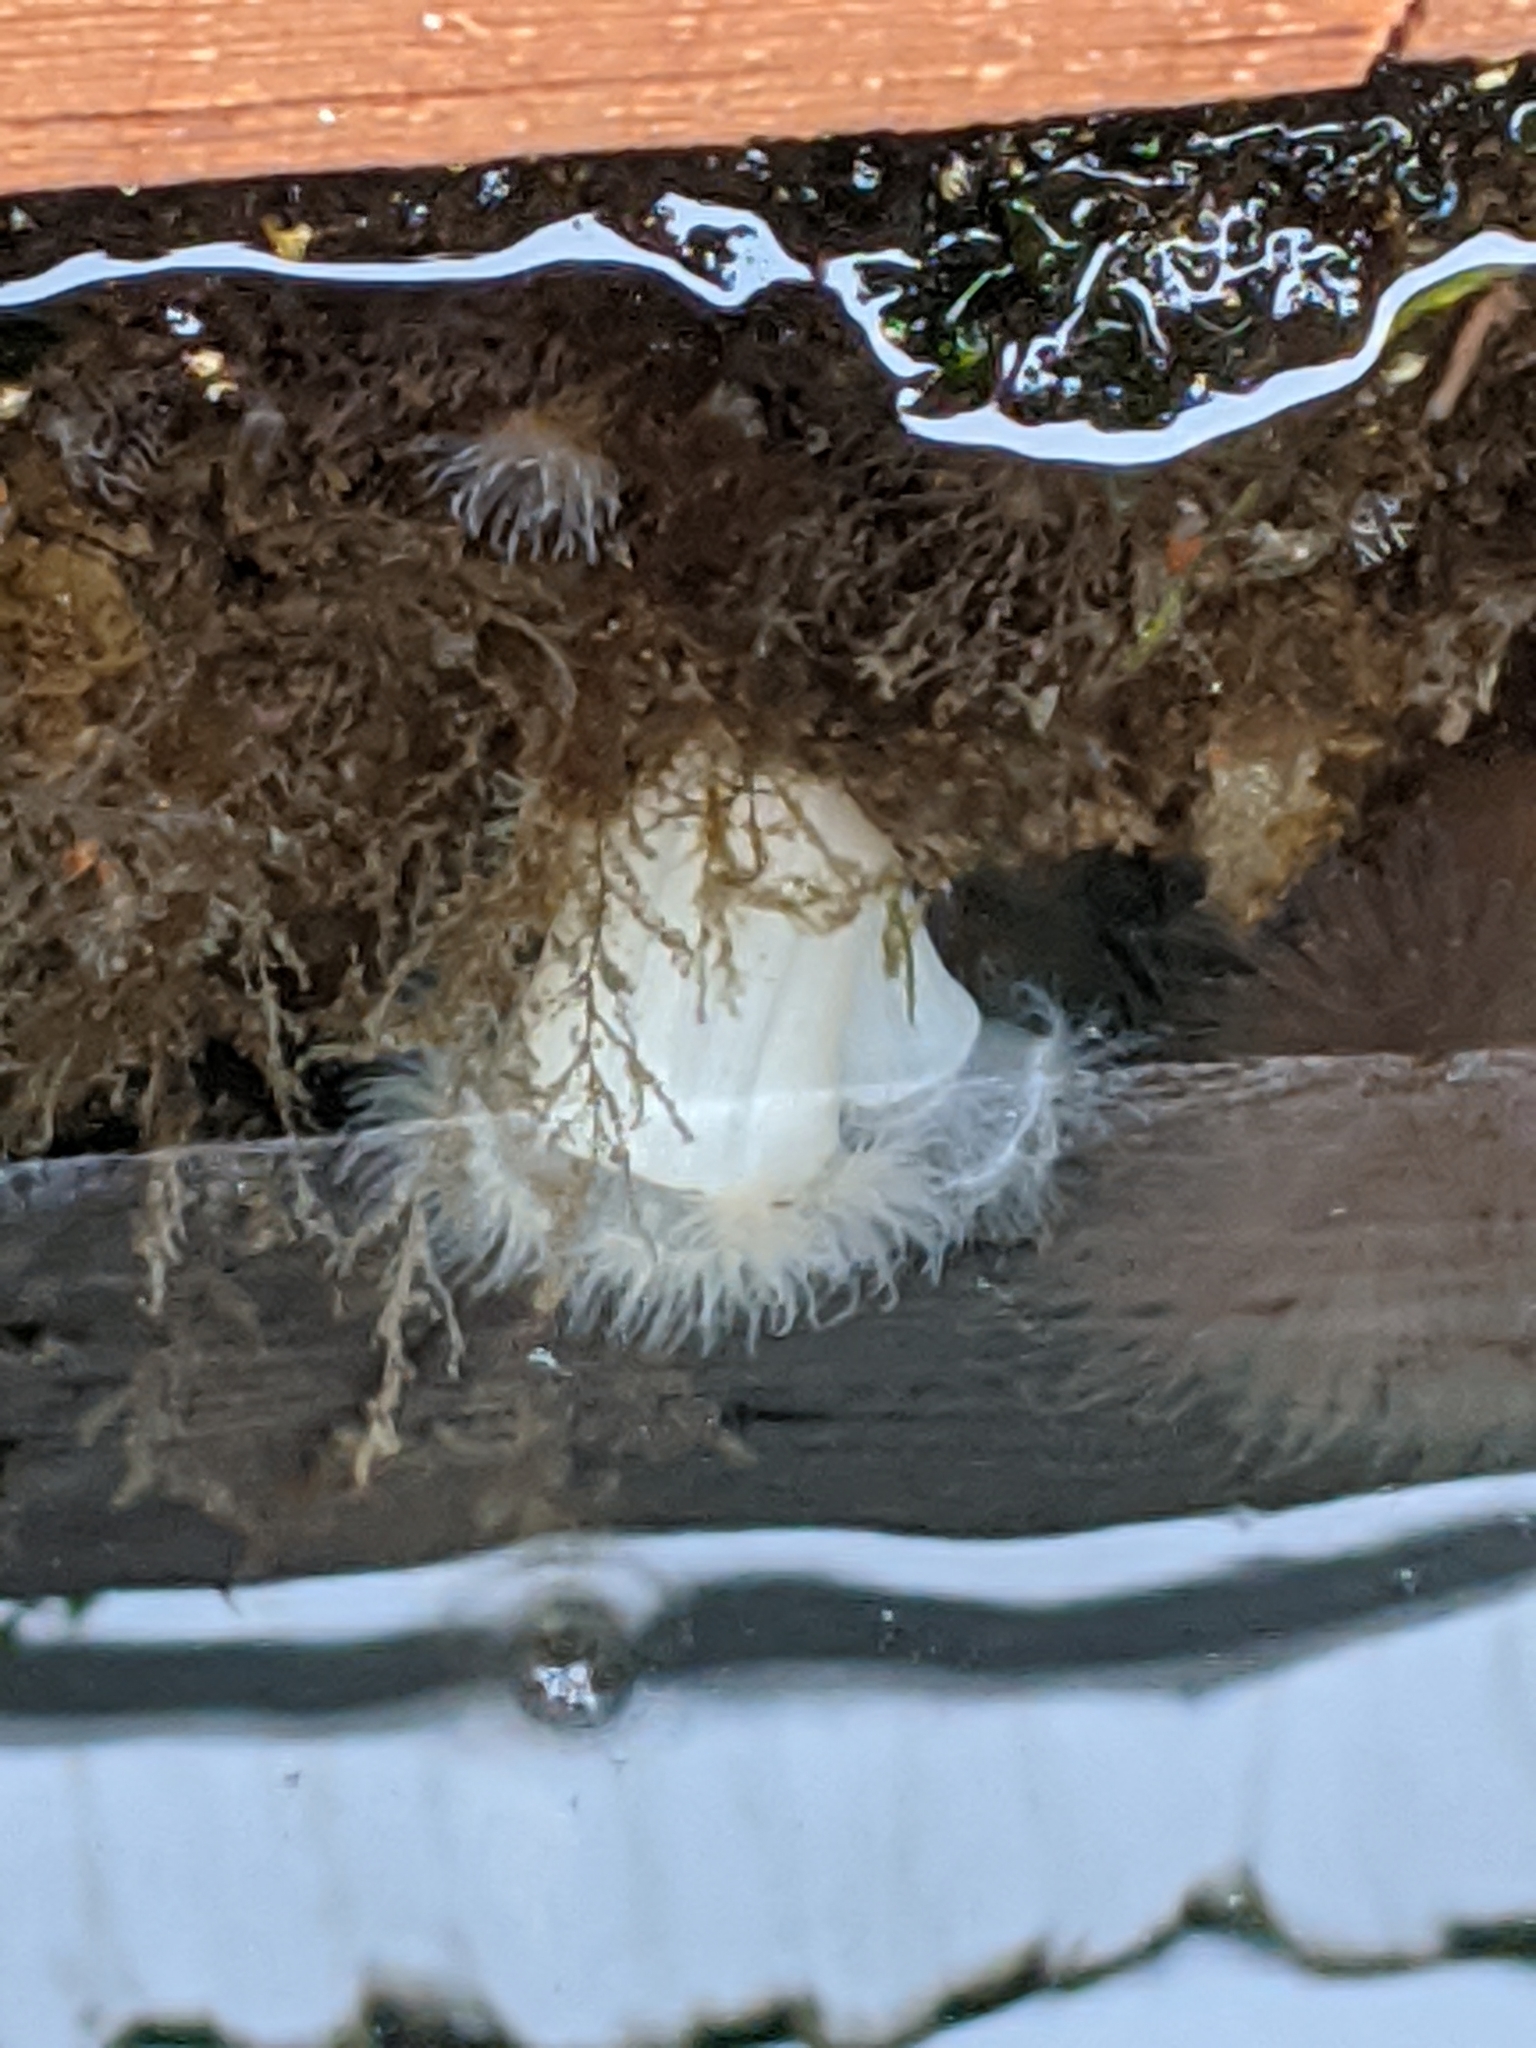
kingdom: Animalia
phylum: Cnidaria
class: Anthozoa
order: Actiniaria
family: Metridiidae
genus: Metridium
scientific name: Metridium senile
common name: Clonal plumose anemone
